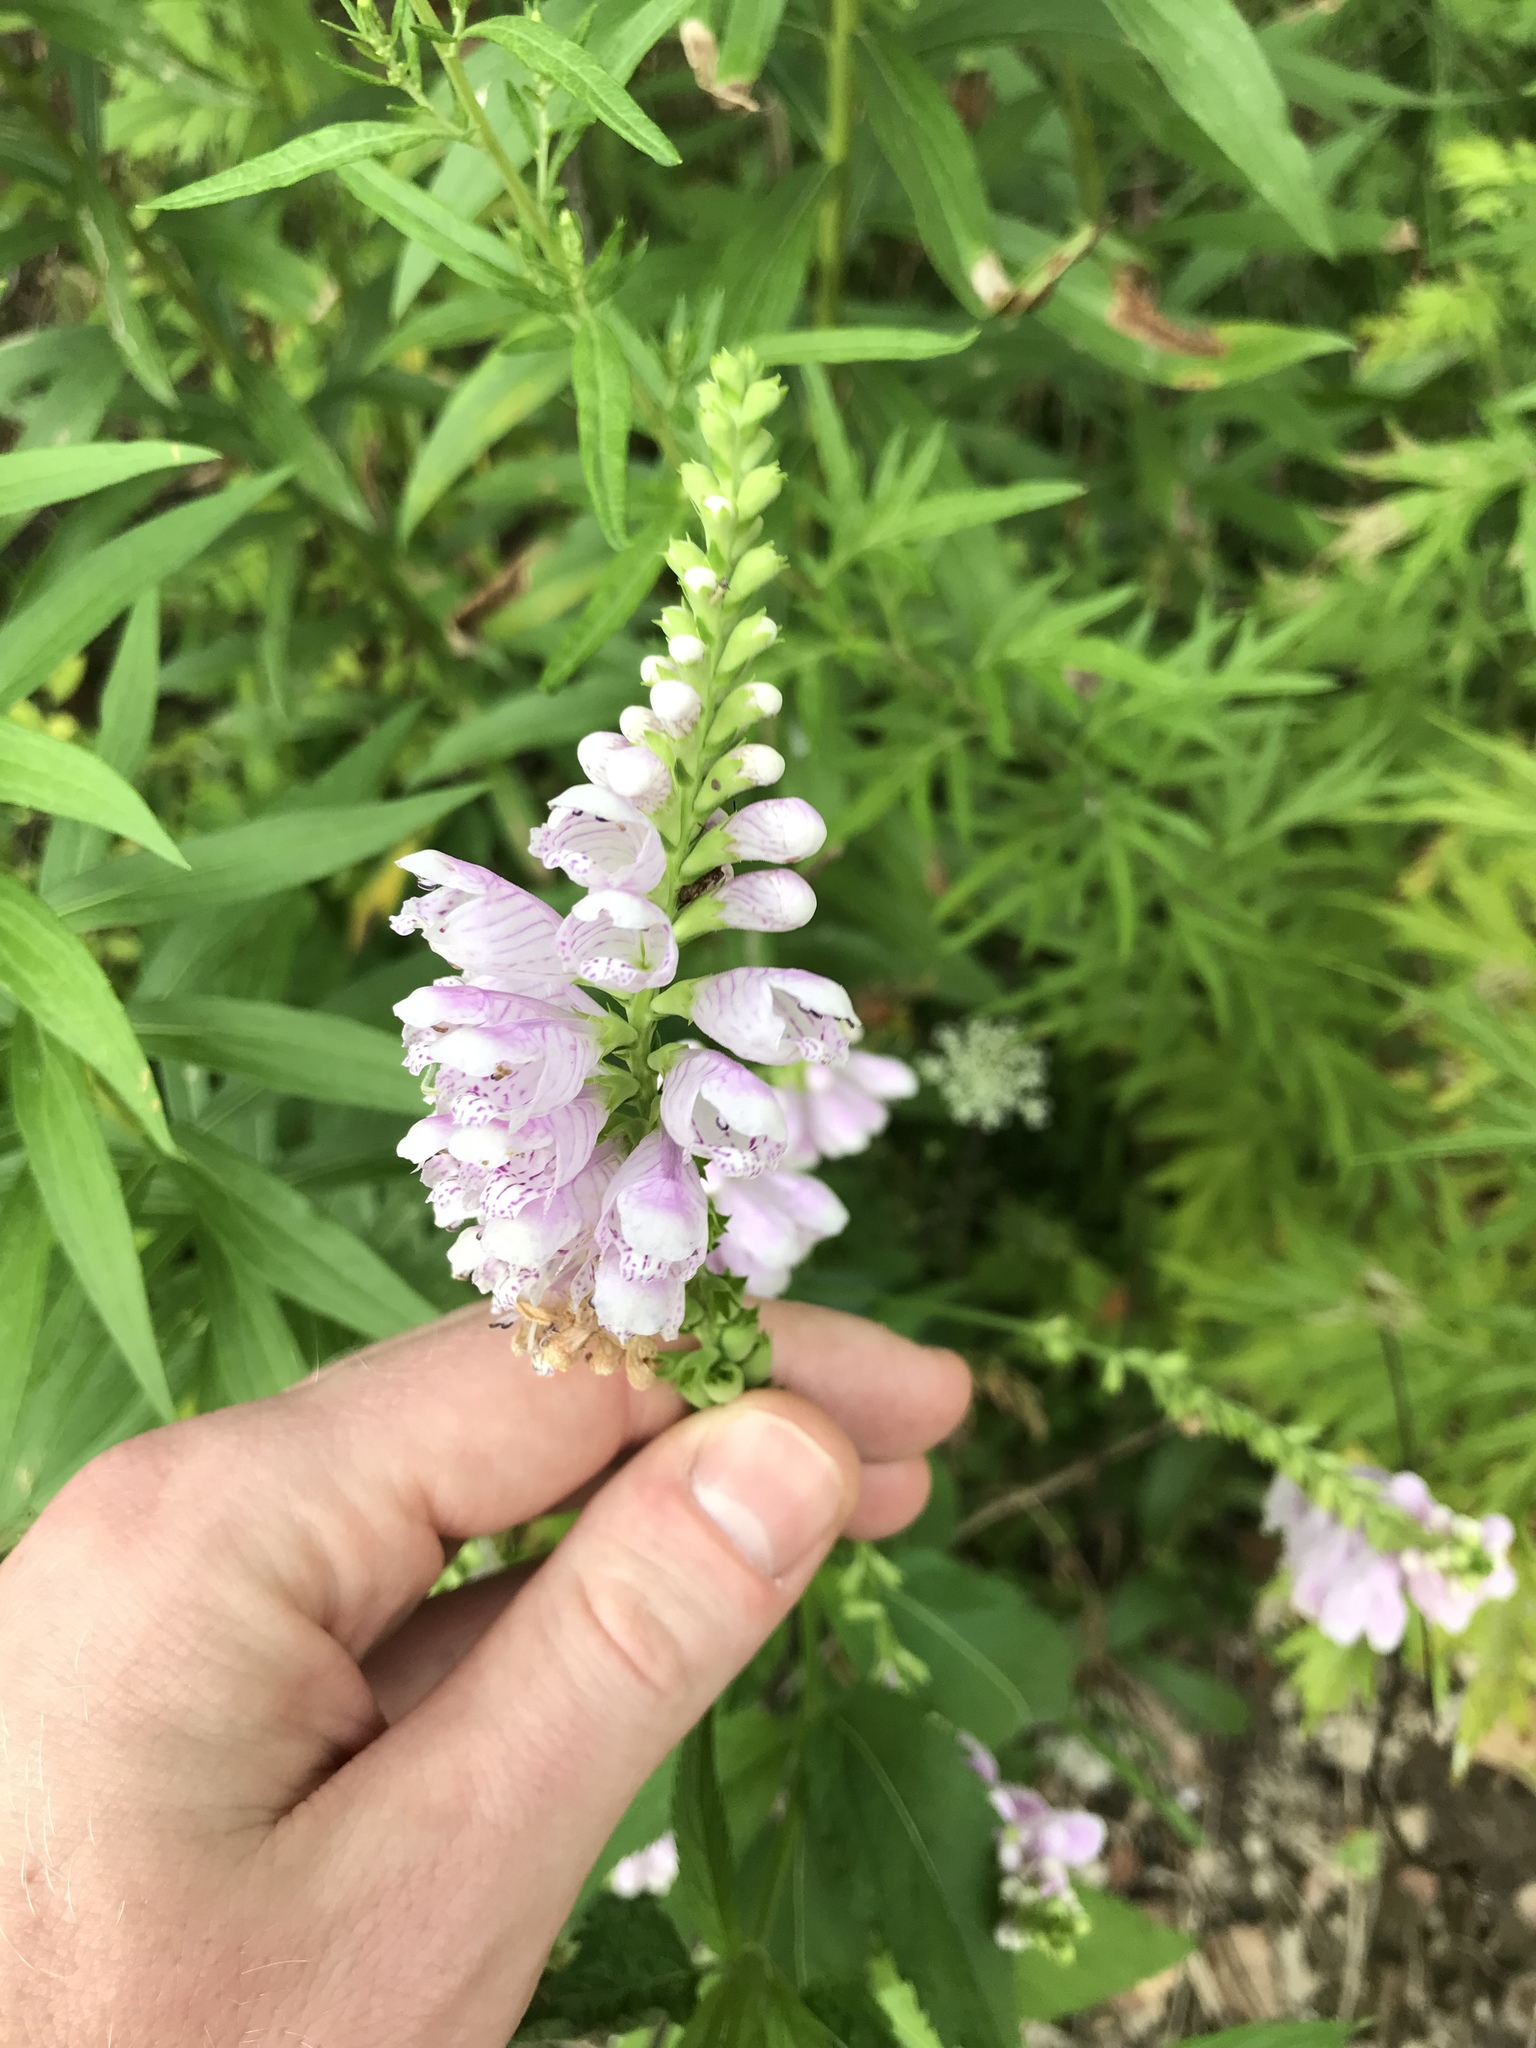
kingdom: Plantae
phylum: Tracheophyta
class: Magnoliopsida
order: Lamiales
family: Lamiaceae
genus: Physostegia
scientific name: Physostegia virginiana
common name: Obedient-plant
